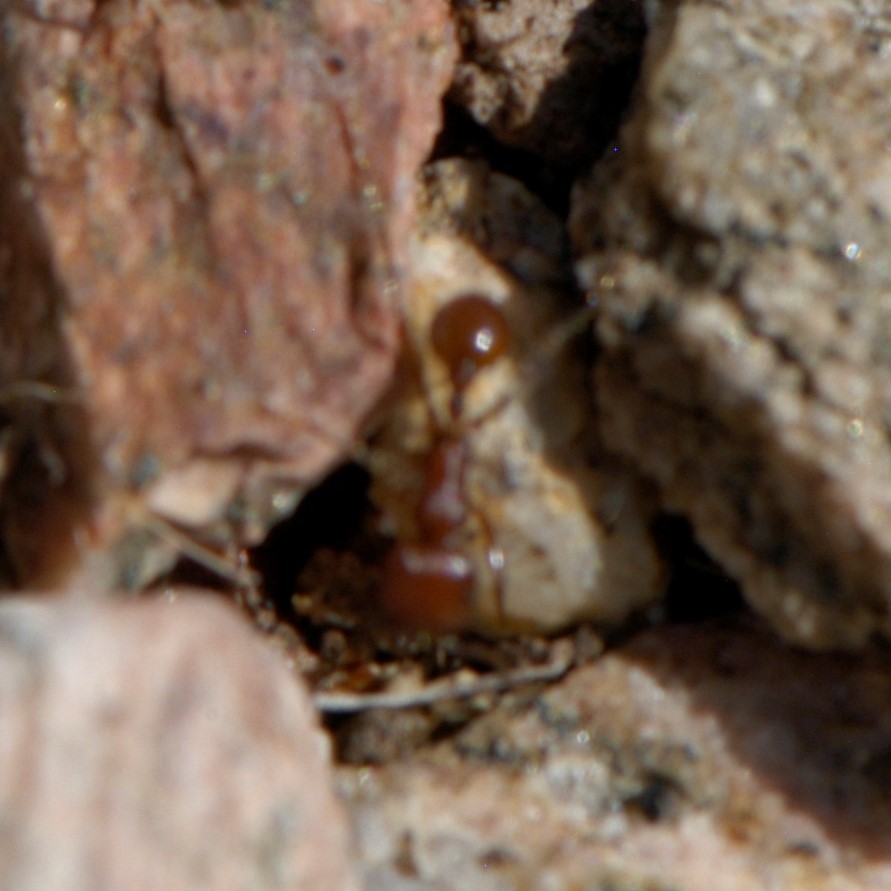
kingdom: Animalia
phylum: Arthropoda
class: Insecta
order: Hymenoptera
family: Formicidae
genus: Pogonomyrmex
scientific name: Pogonomyrmex
